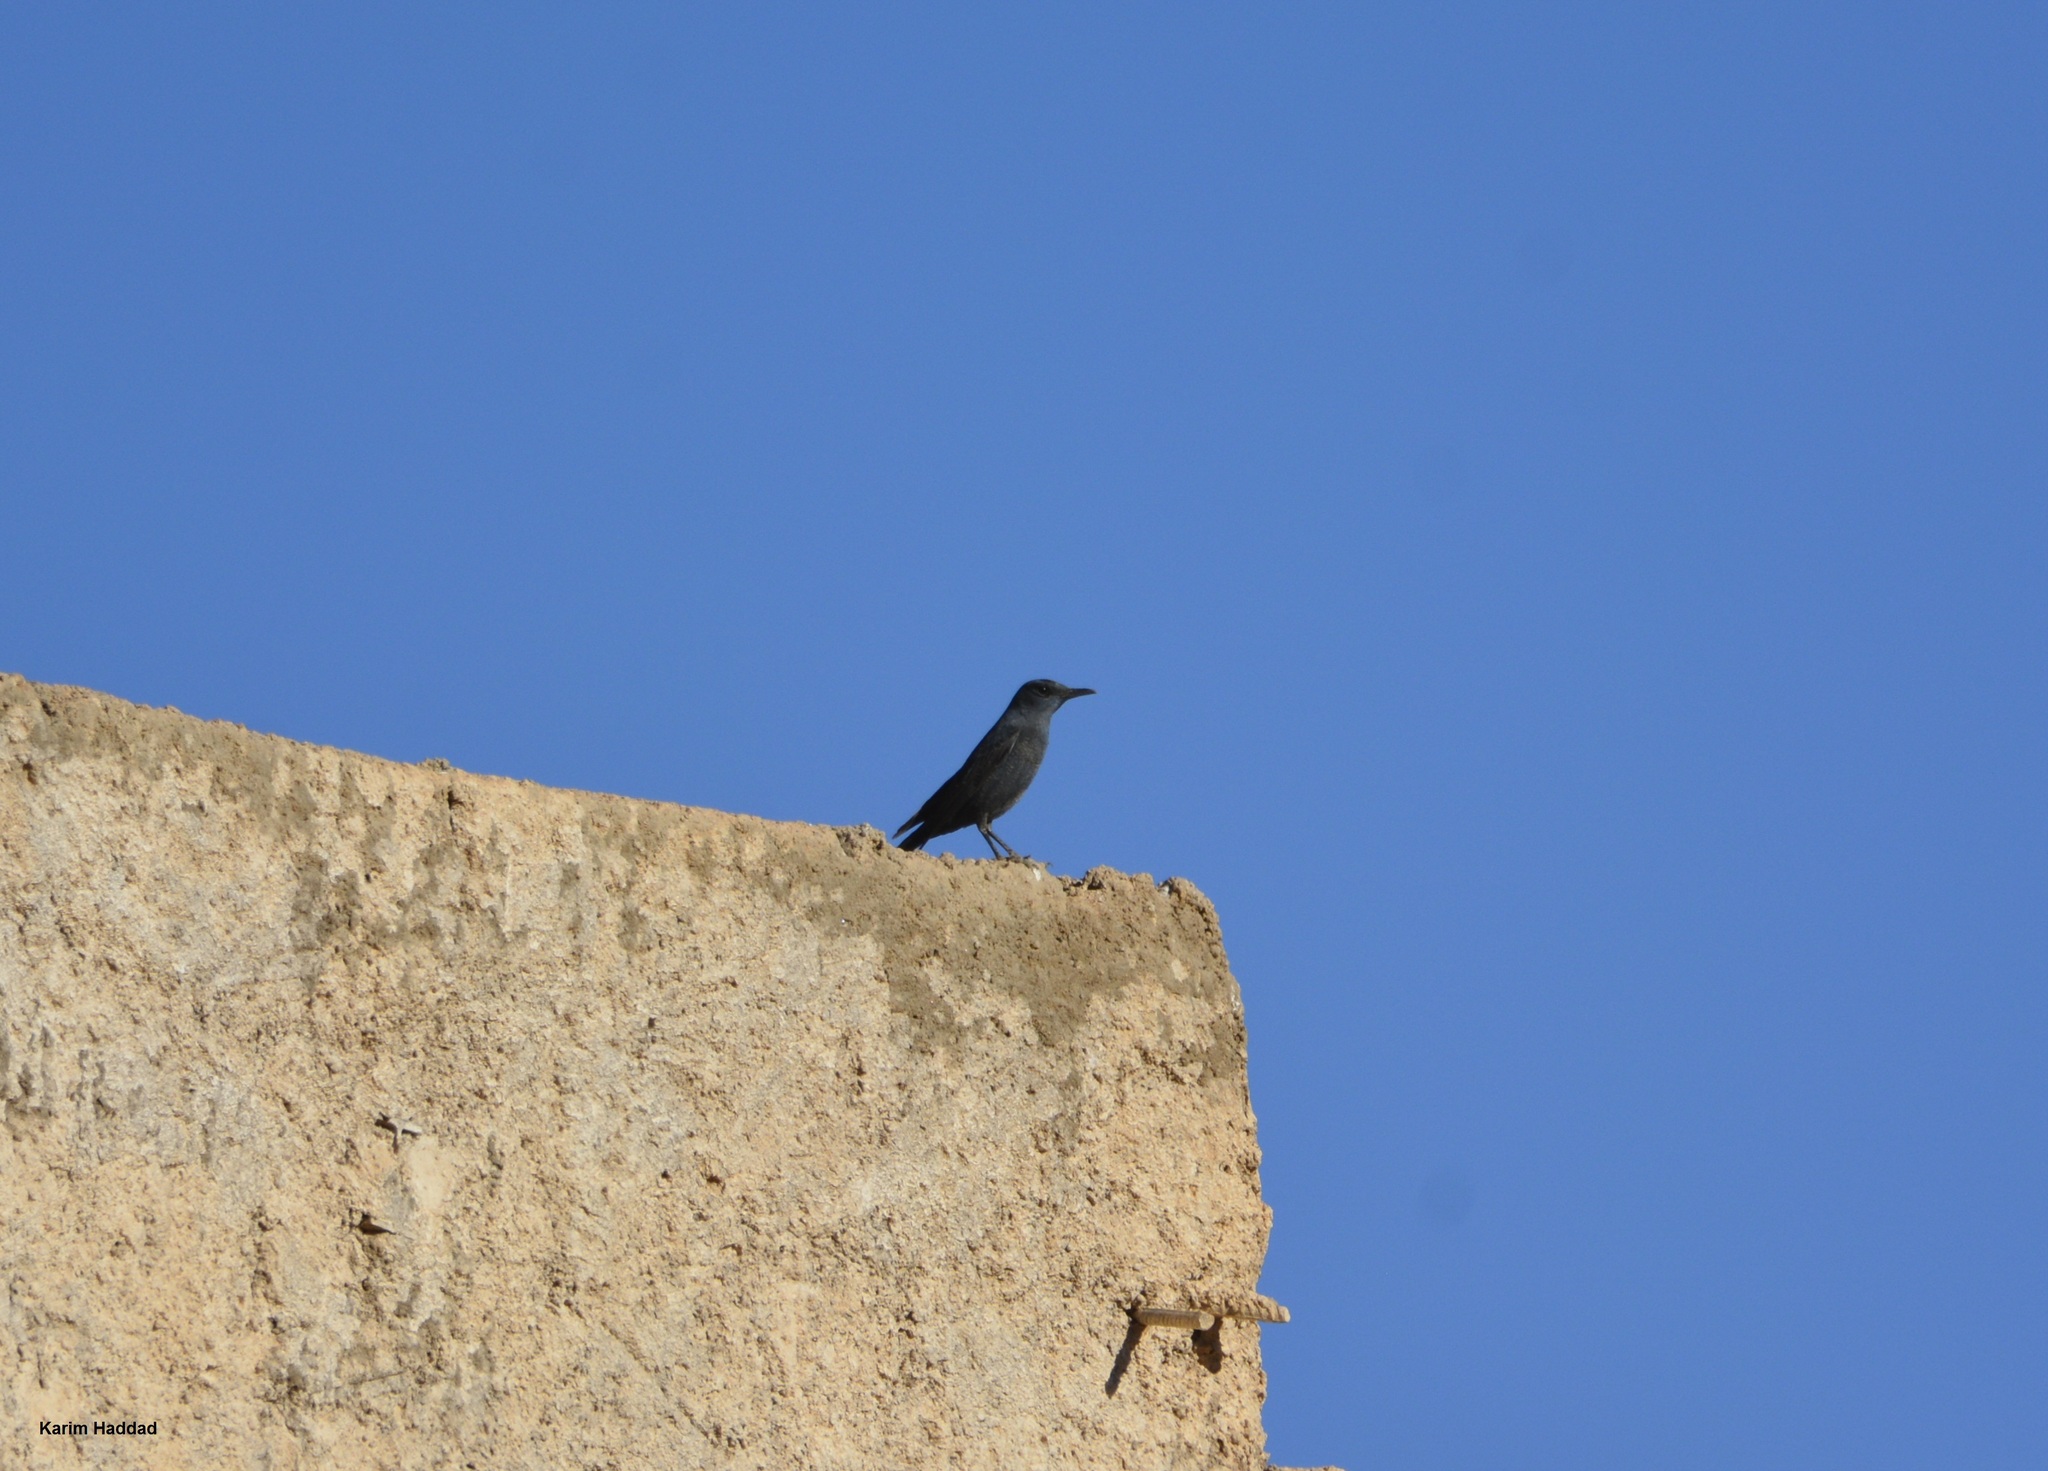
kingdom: Animalia
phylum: Chordata
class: Aves
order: Passeriformes
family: Muscicapidae
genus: Monticola
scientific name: Monticola solitarius
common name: Blue rock thrush
